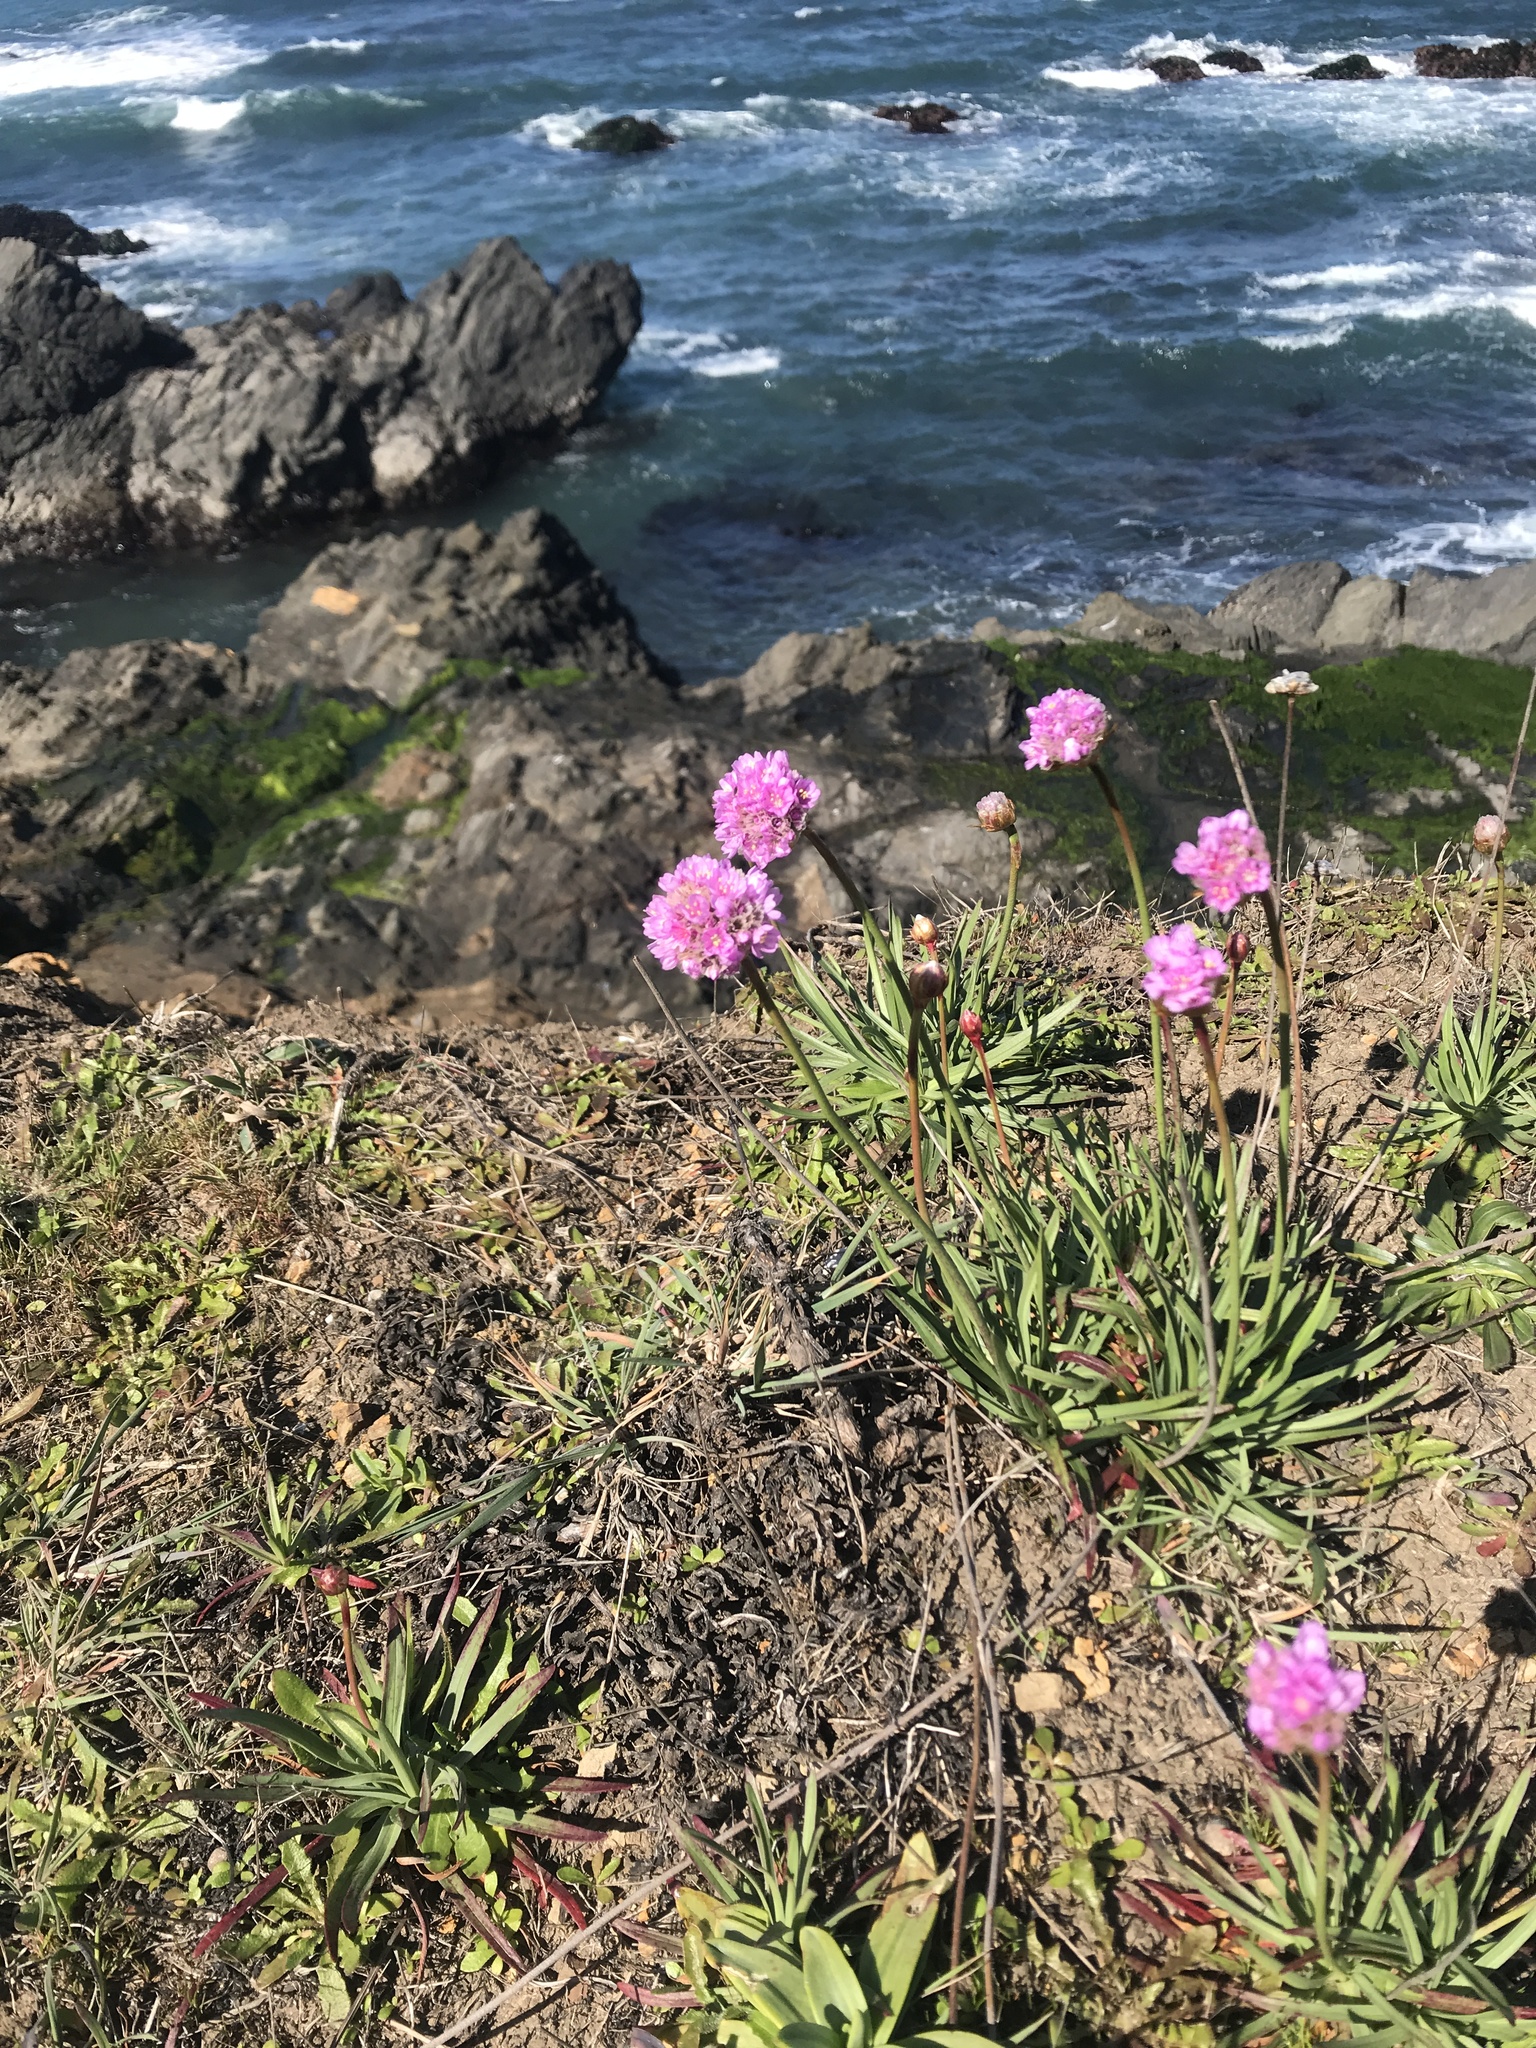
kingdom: Plantae
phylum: Tracheophyta
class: Magnoliopsida
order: Caryophyllales
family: Plumbaginaceae
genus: Armeria
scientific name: Armeria maritima
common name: Thrift
